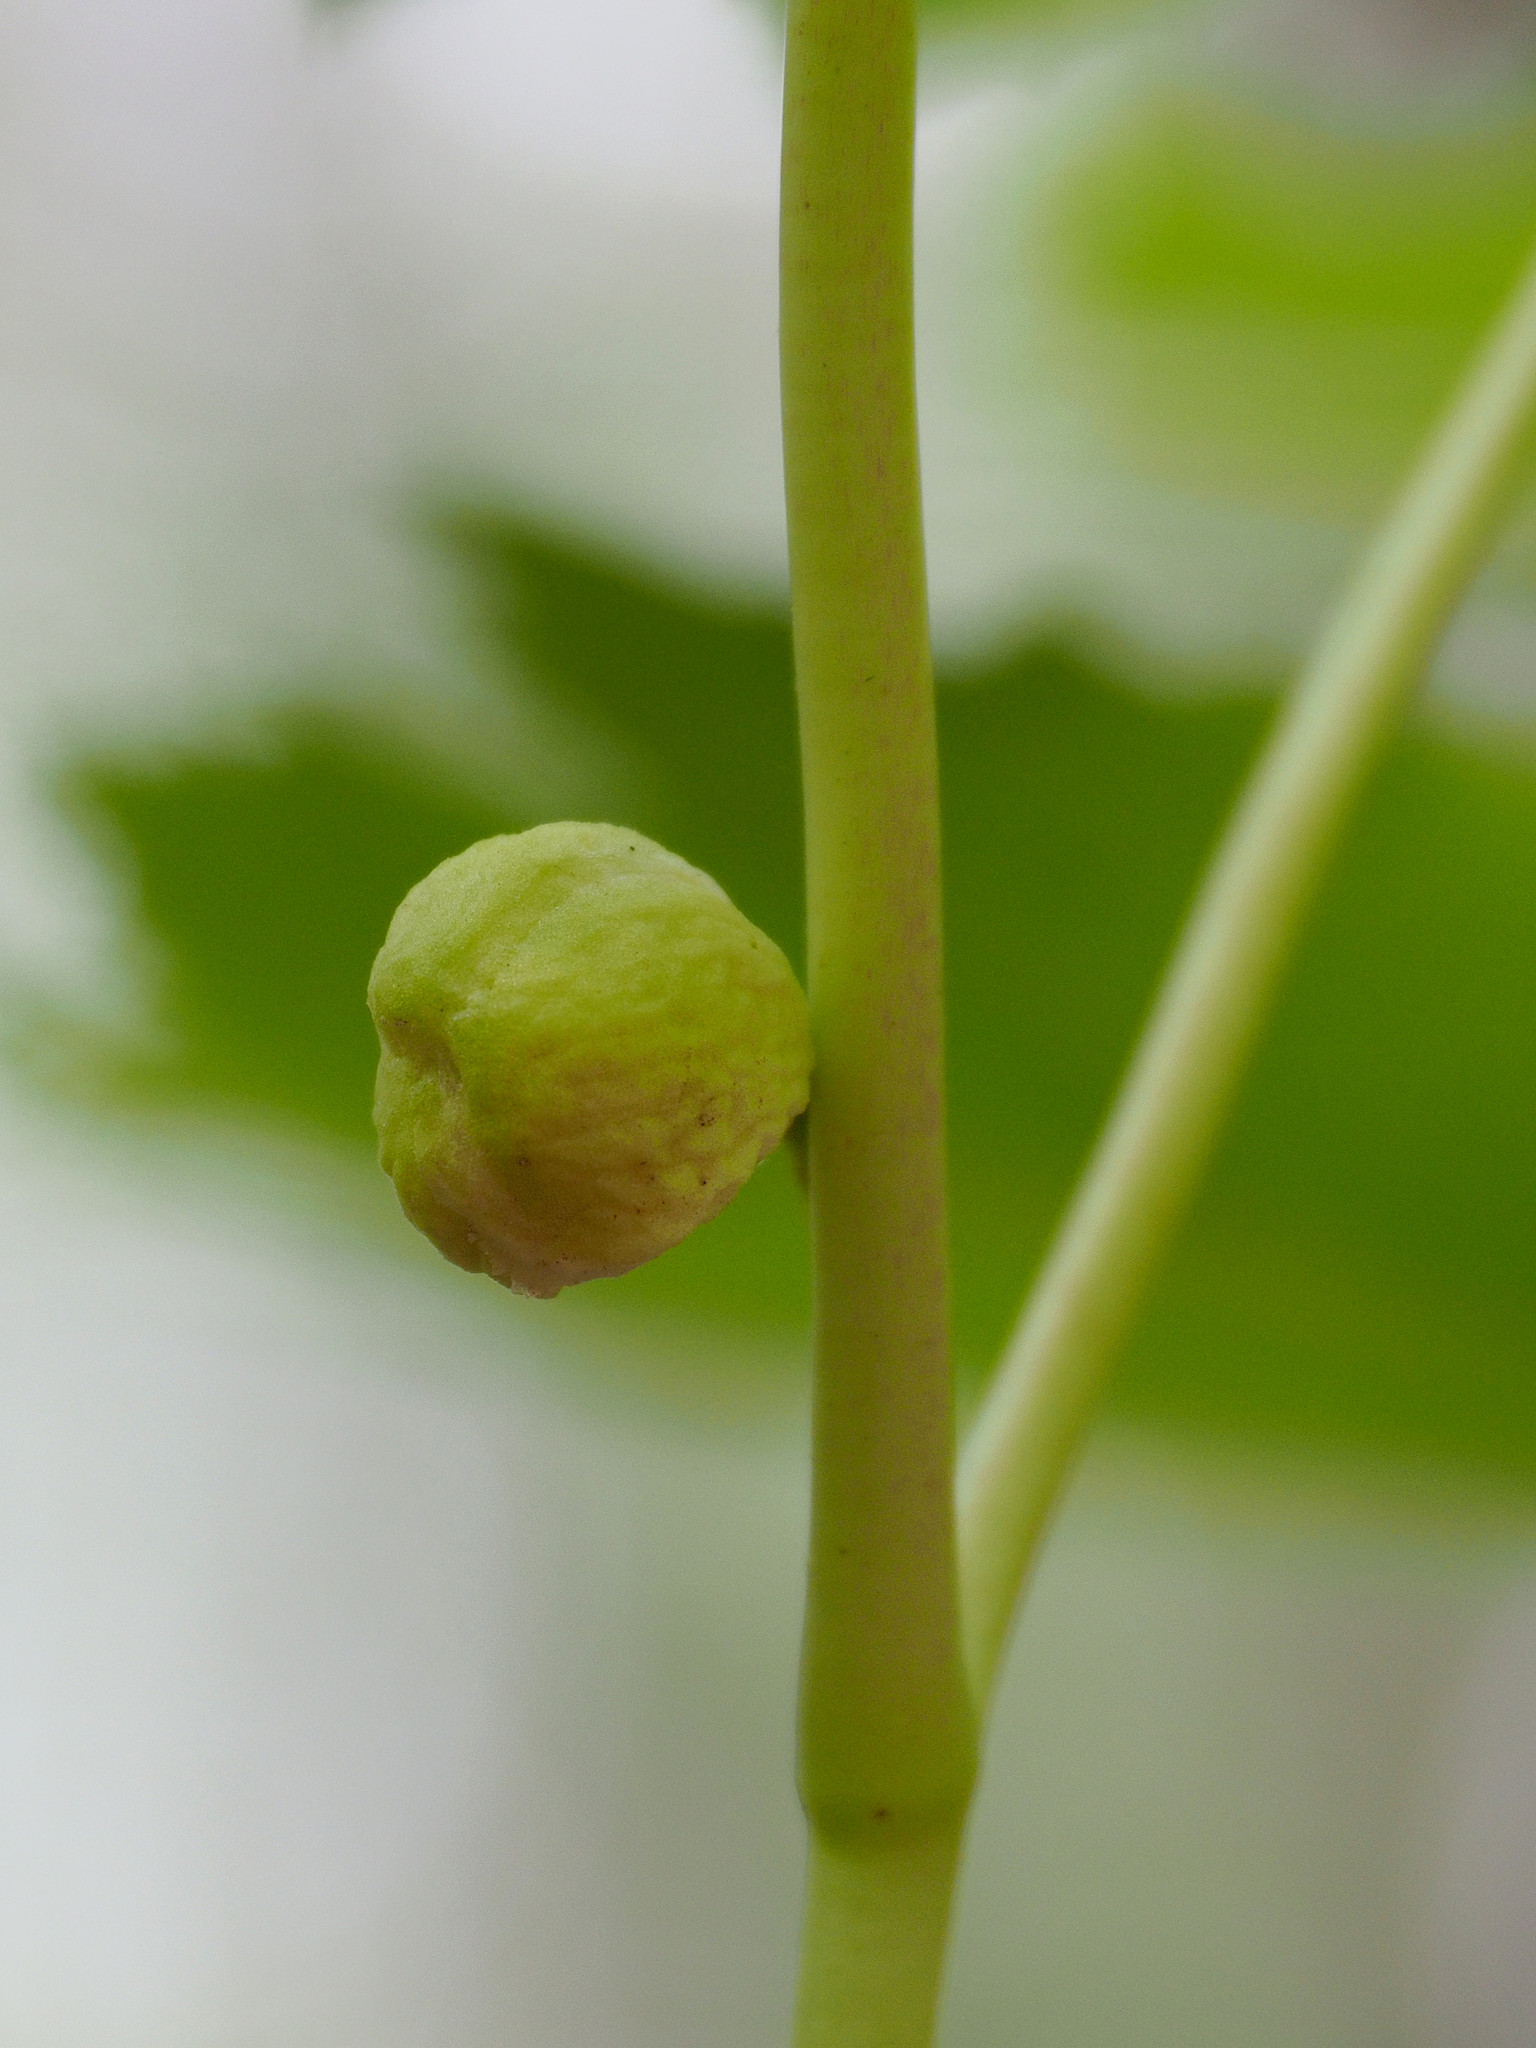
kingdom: Plantae
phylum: Tracheophyta
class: Magnoliopsida
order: Ranunculales
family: Berberidaceae
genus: Podophyllum
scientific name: Podophyllum peltatum
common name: Wild mandrake
